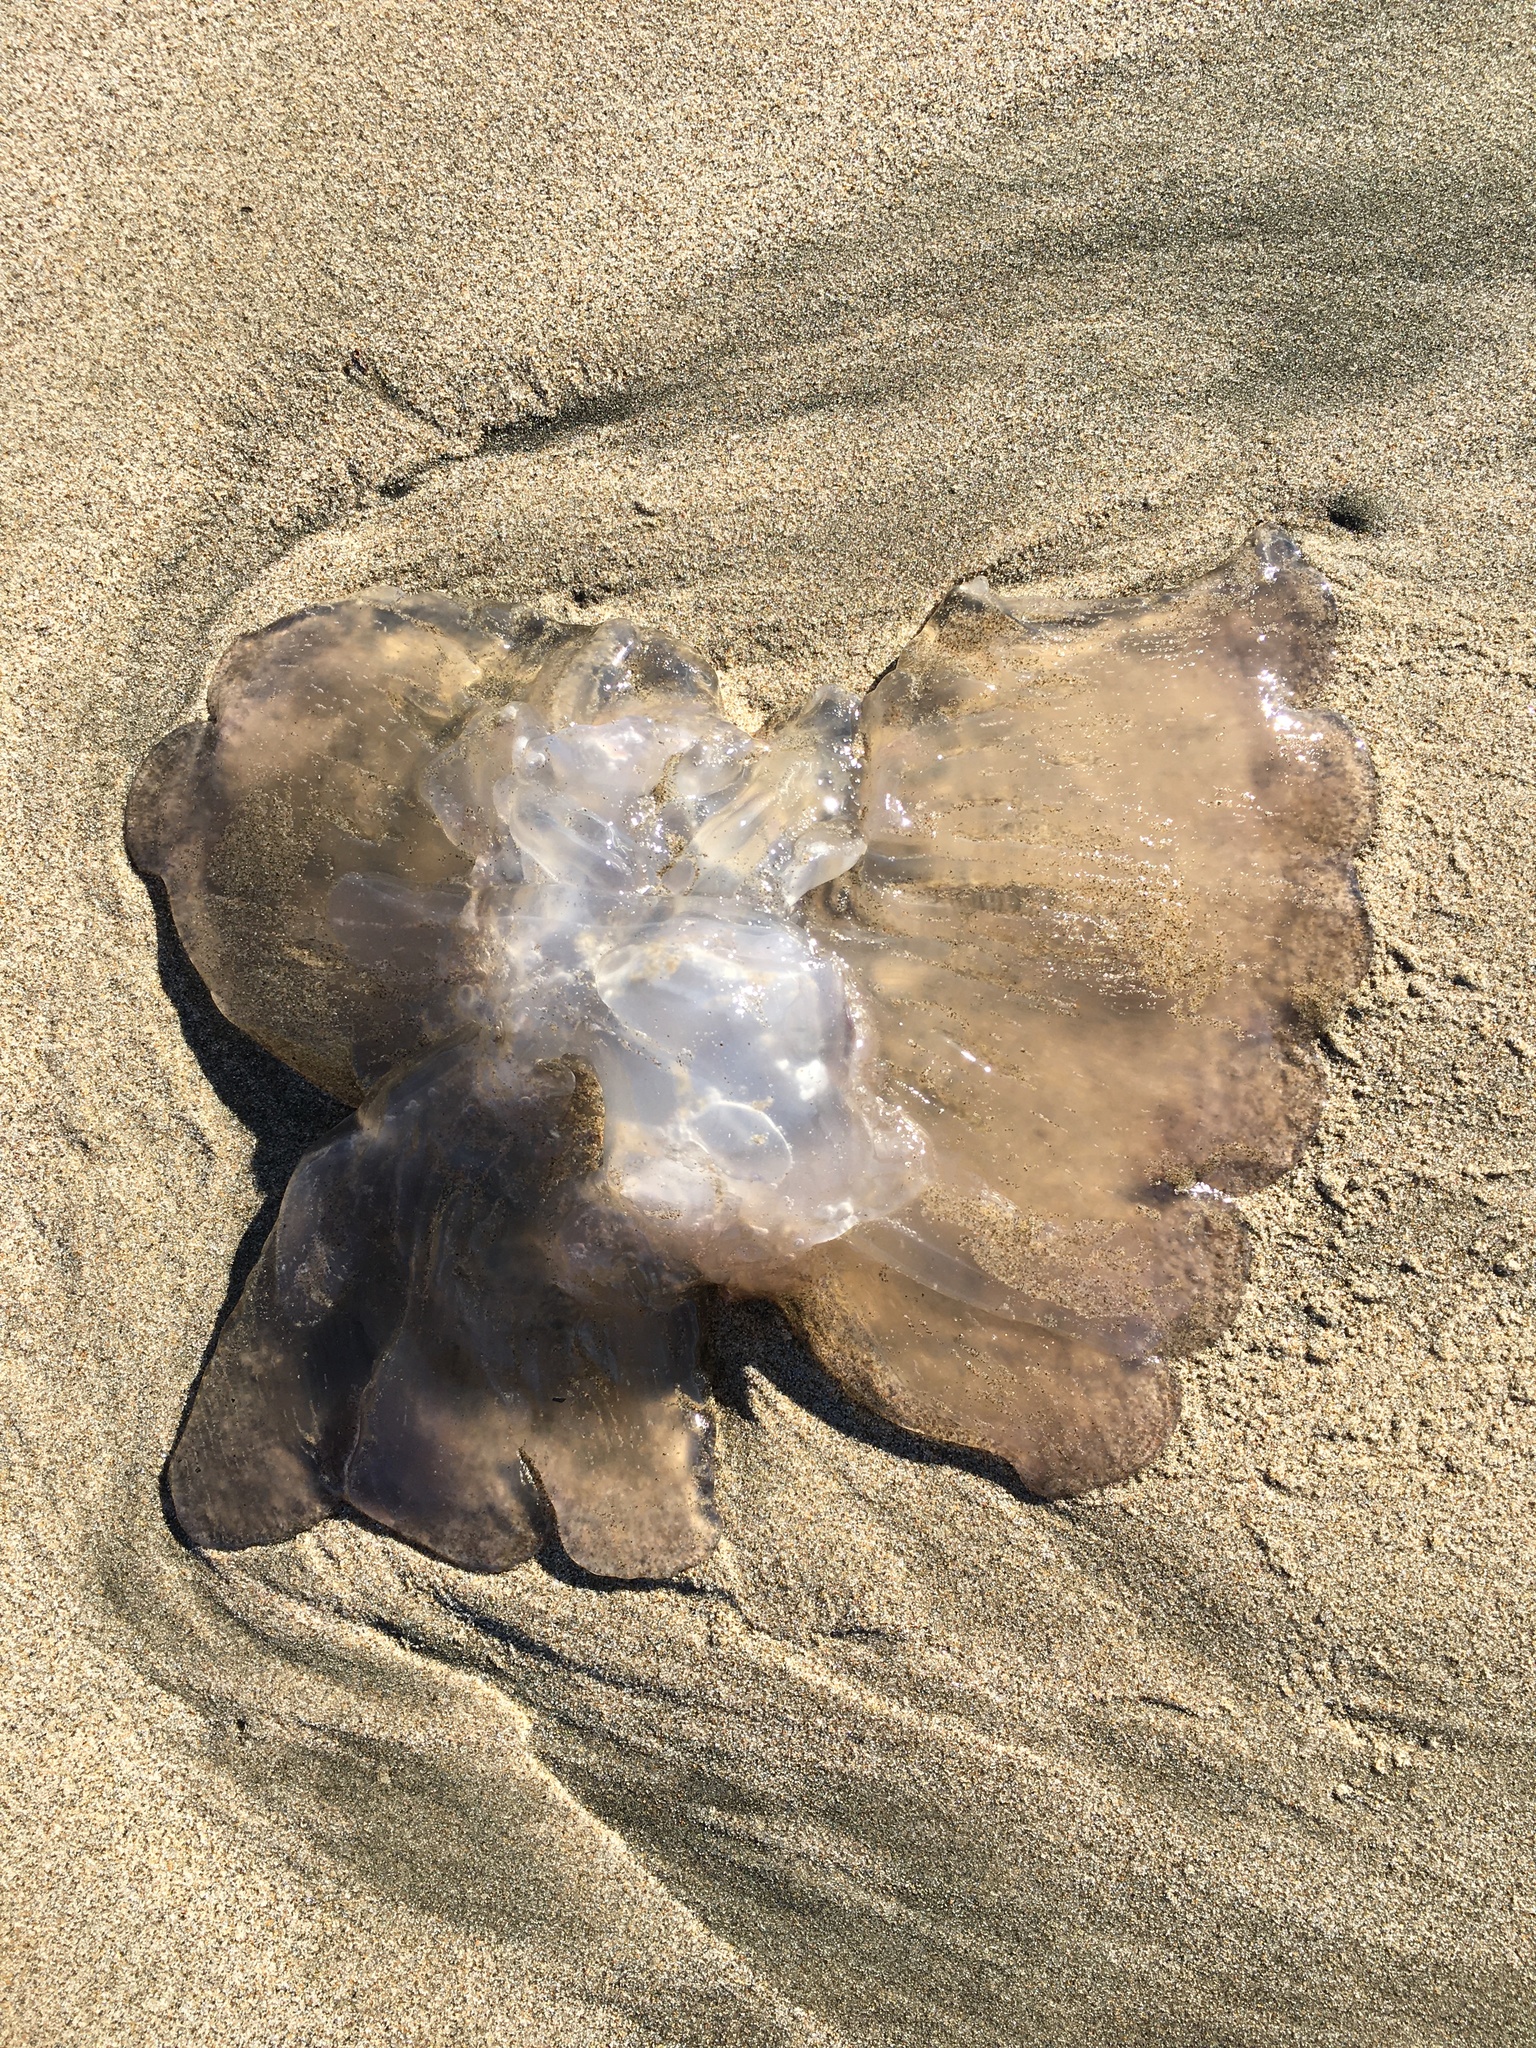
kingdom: Animalia
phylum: Cnidaria
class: Scyphozoa
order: Semaeostomeae
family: Ulmaridae
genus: Aurelia
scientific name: Aurelia labiata
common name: Pacific moon jelly
